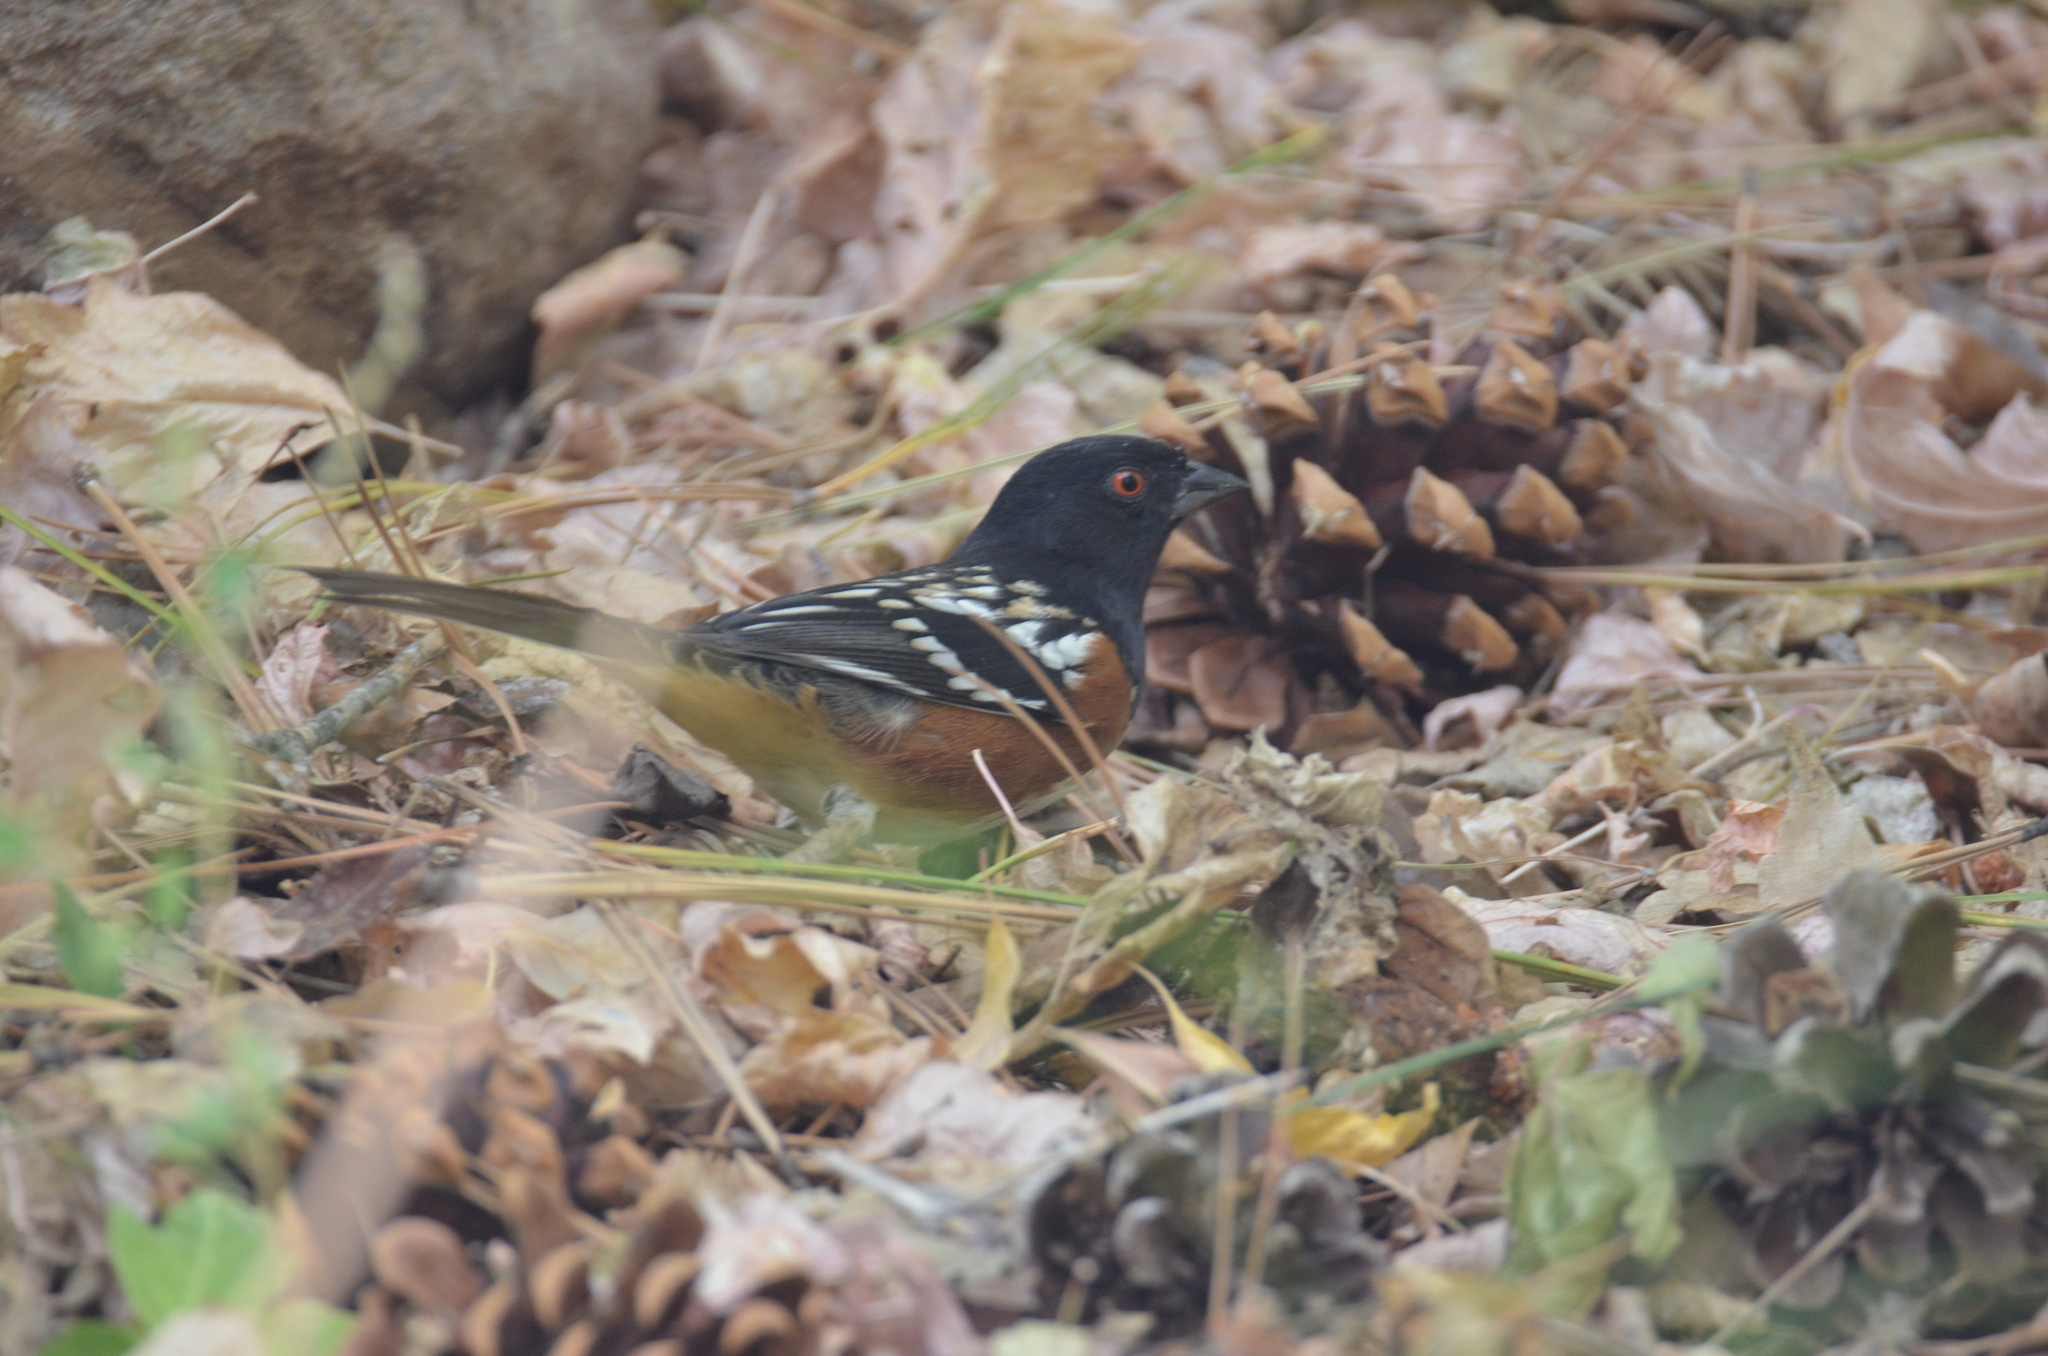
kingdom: Animalia
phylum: Chordata
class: Aves
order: Passeriformes
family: Passerellidae
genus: Pipilo
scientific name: Pipilo maculatus
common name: Spotted towhee
